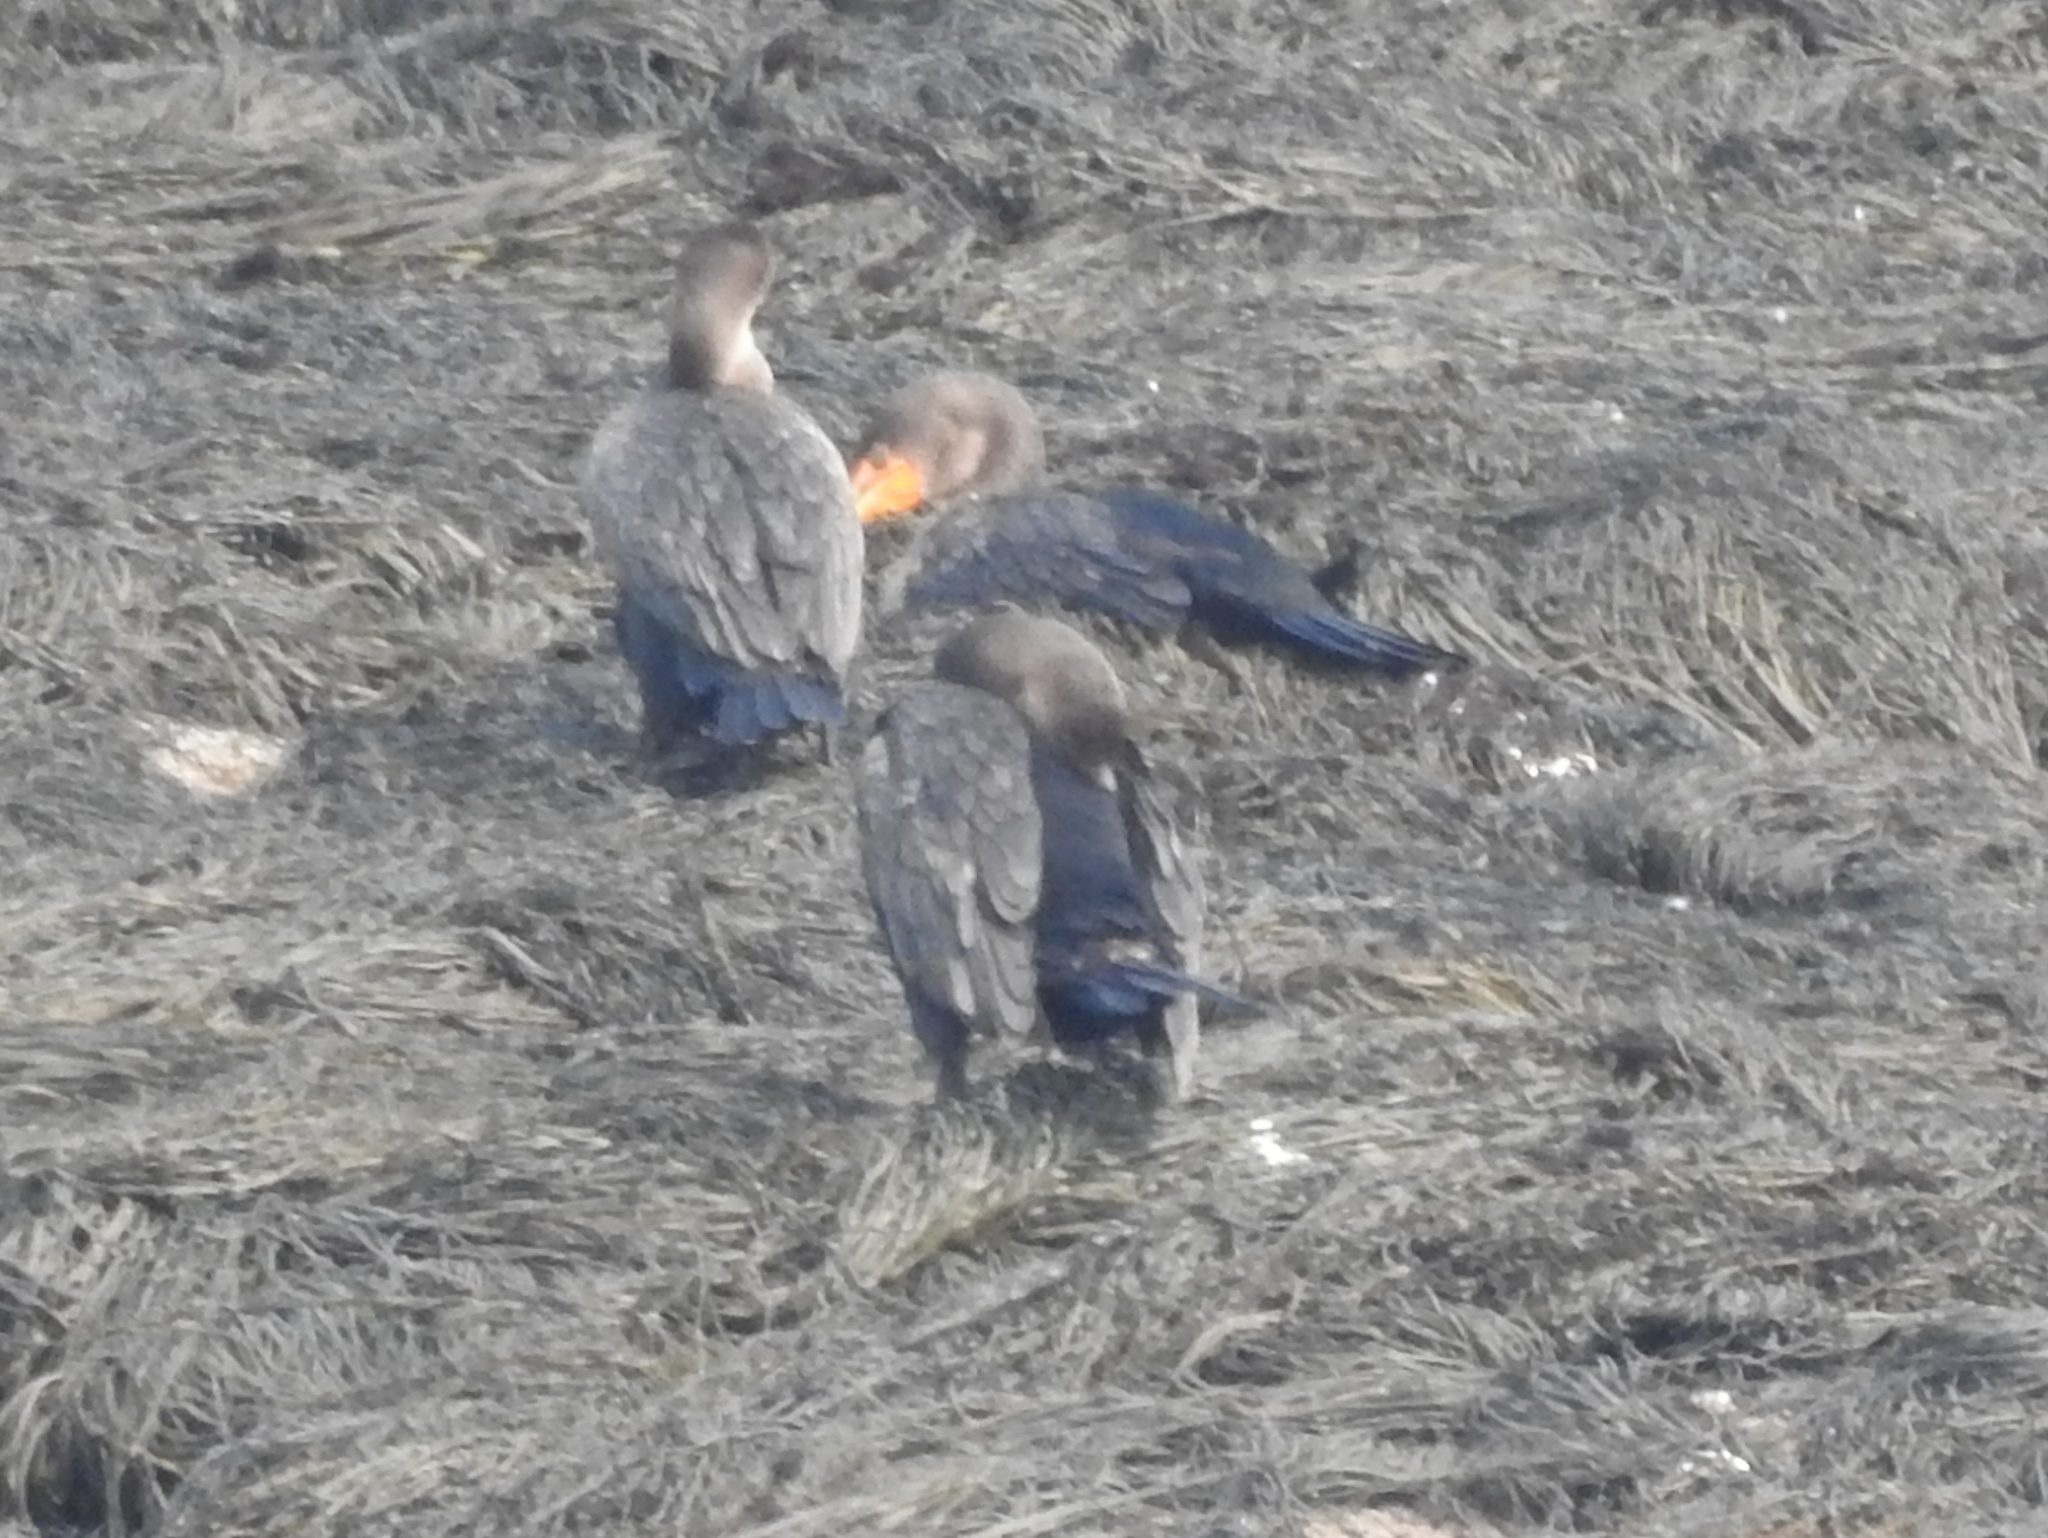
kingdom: Animalia
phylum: Chordata
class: Aves
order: Suliformes
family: Phalacrocoracidae
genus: Phalacrocorax
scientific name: Phalacrocorax auritus
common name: Double-crested cormorant
